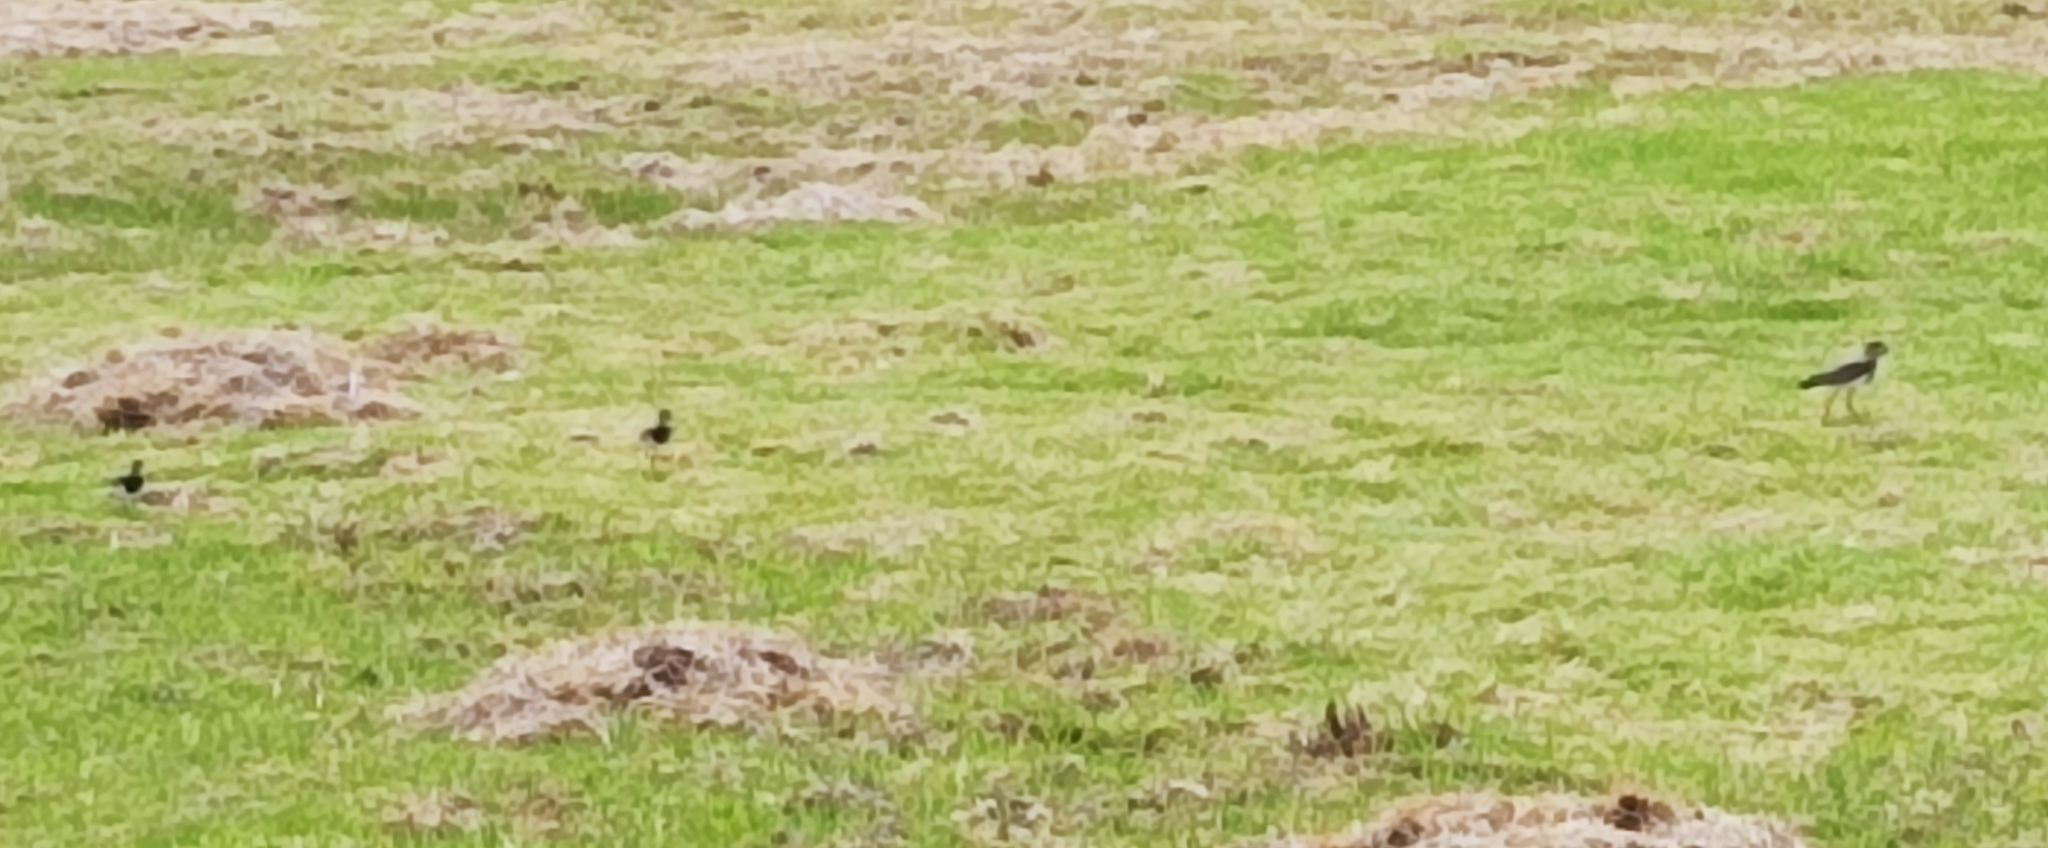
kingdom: Animalia
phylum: Chordata
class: Aves
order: Charadriiformes
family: Charadriidae
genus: Vanellus
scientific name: Vanellus chilensis
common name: Southern lapwing
